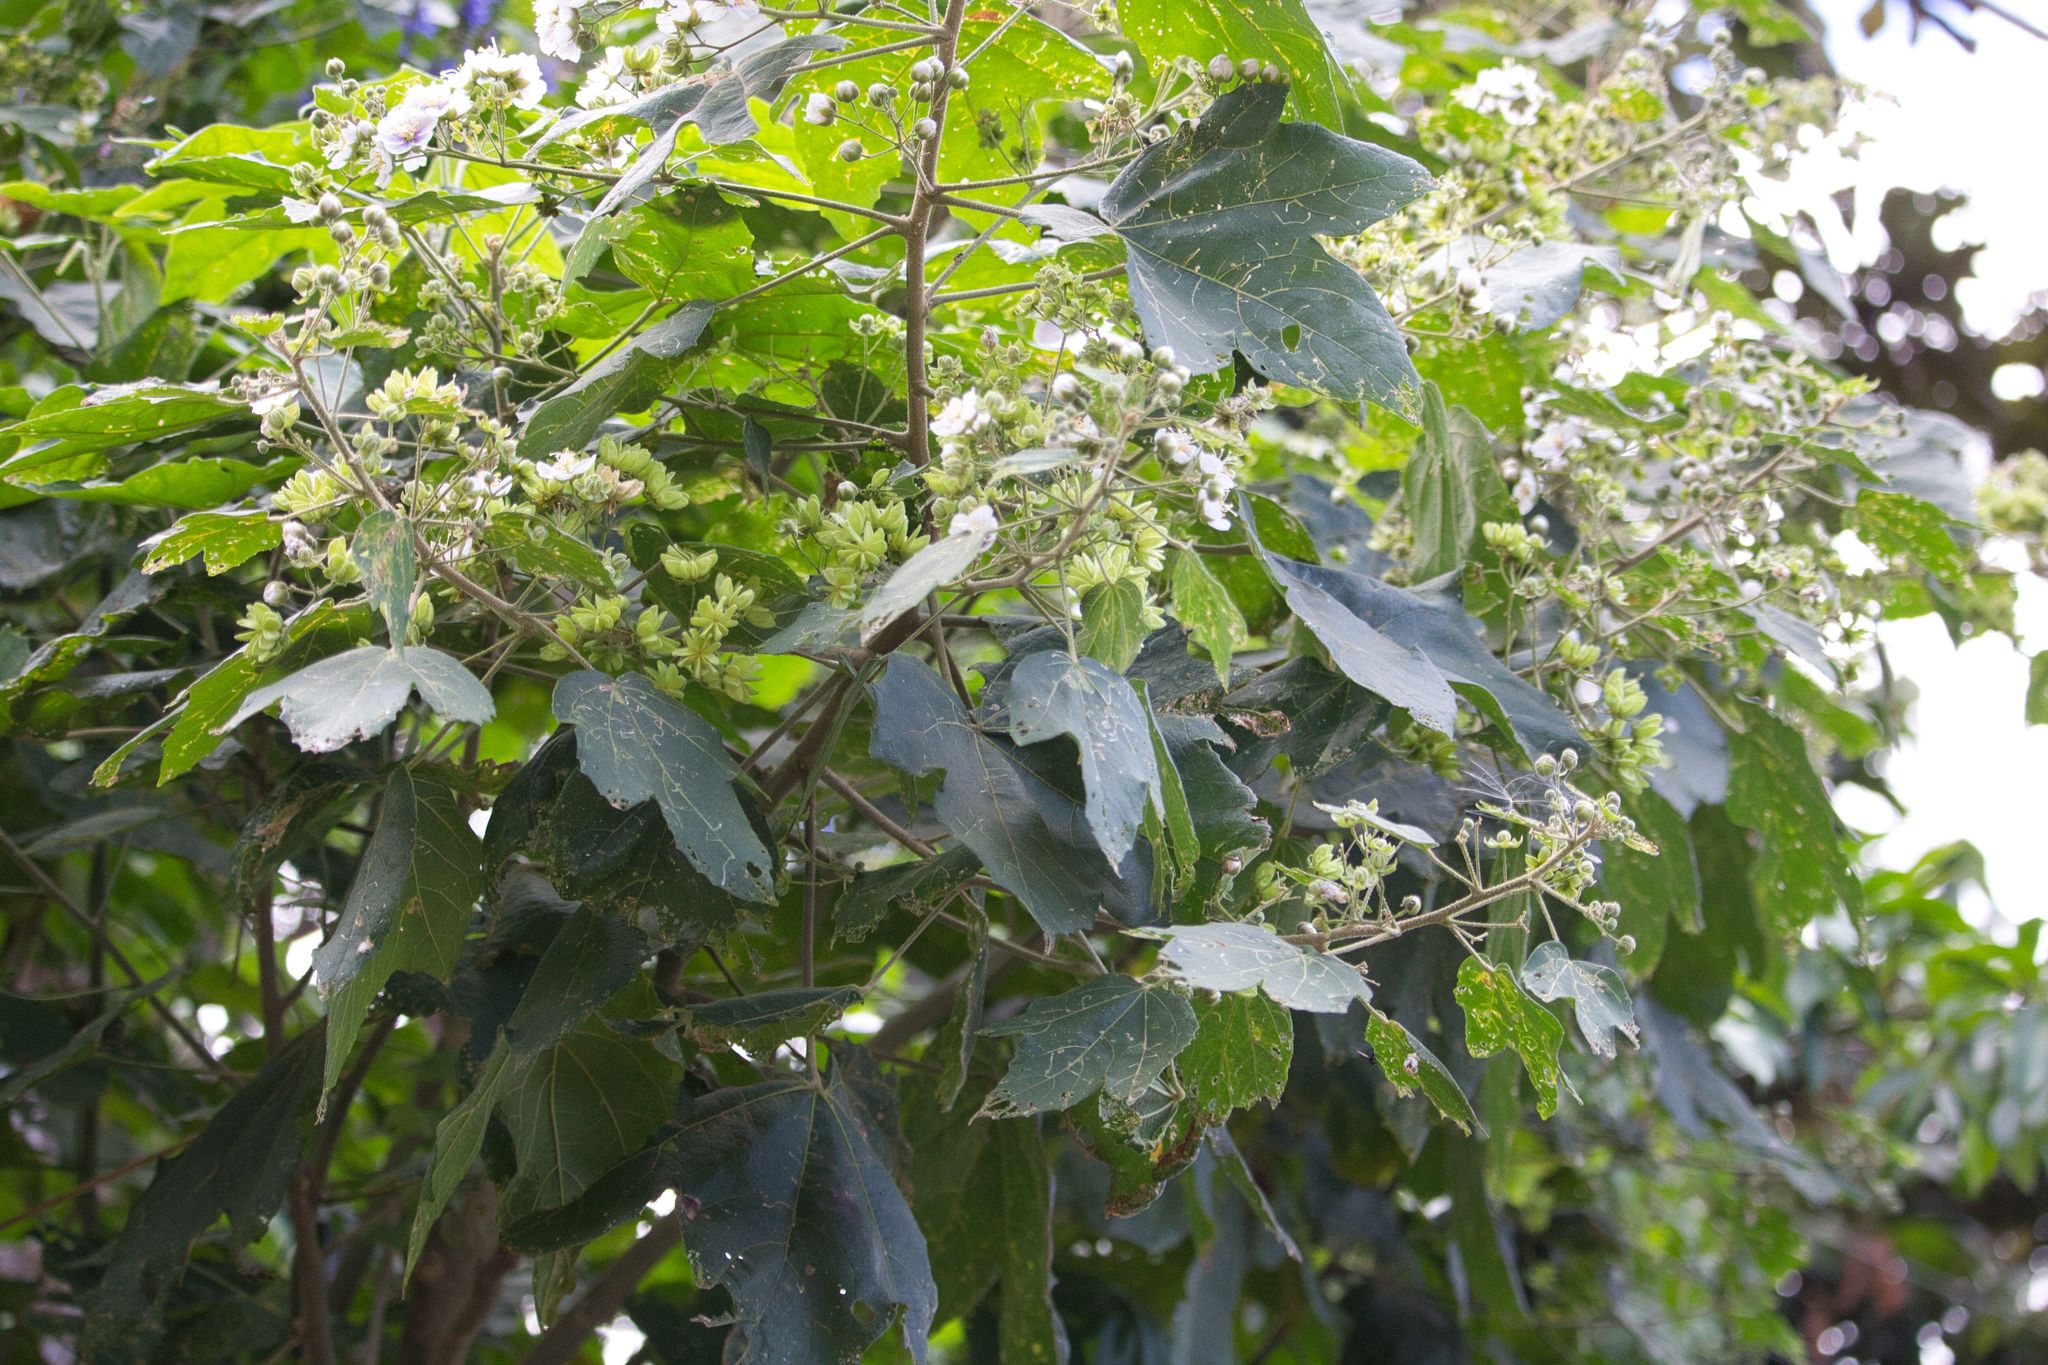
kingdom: Plantae
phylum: Tracheophyta
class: Magnoliopsida
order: Malvales
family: Malvaceae
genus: Robinsonella
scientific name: Robinsonella lindeniana
